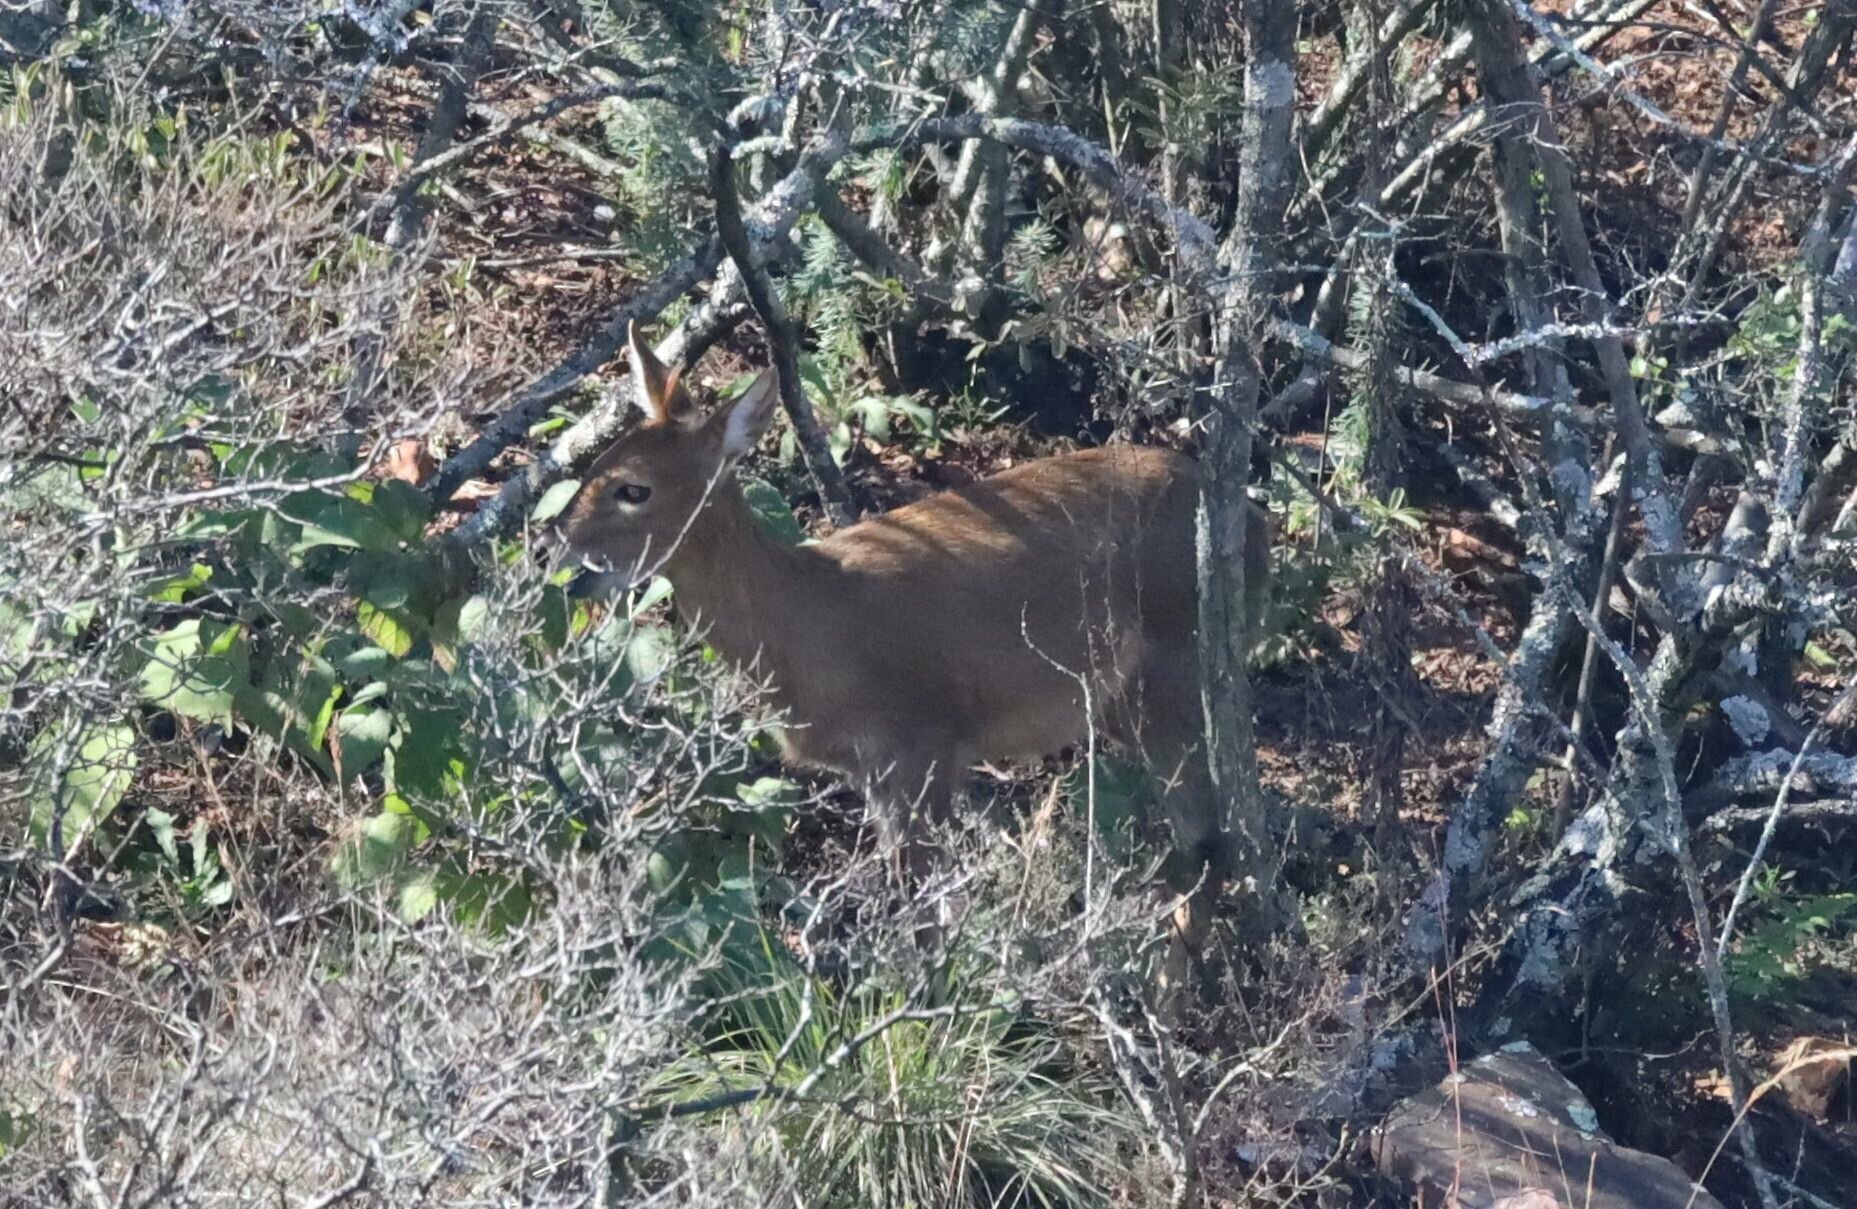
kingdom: Animalia
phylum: Chordata
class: Mammalia
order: Artiodactyla
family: Bovidae
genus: Sylvicapra
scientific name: Sylvicapra grimmia
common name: Bush duiker
